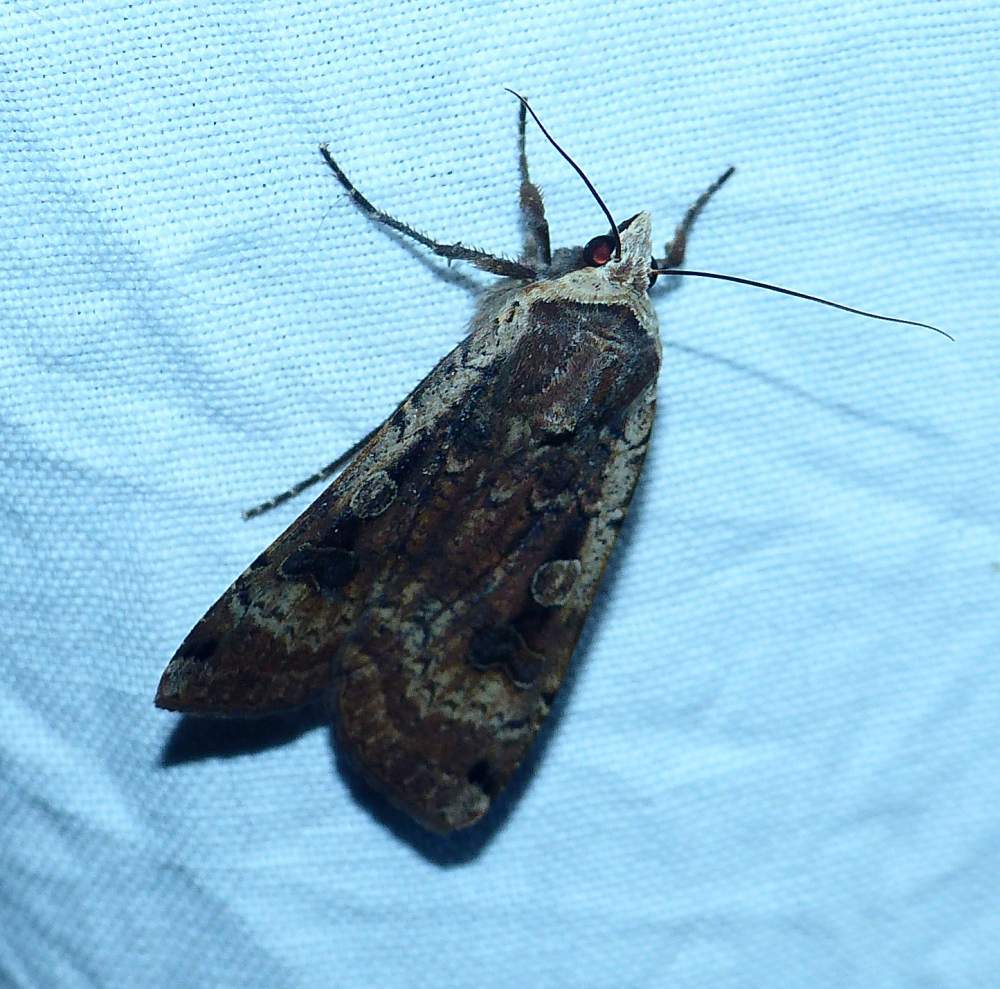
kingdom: Animalia
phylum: Arthropoda
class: Insecta
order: Lepidoptera
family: Noctuidae
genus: Noctua
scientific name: Noctua pronuba
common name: Large yellow underwing
